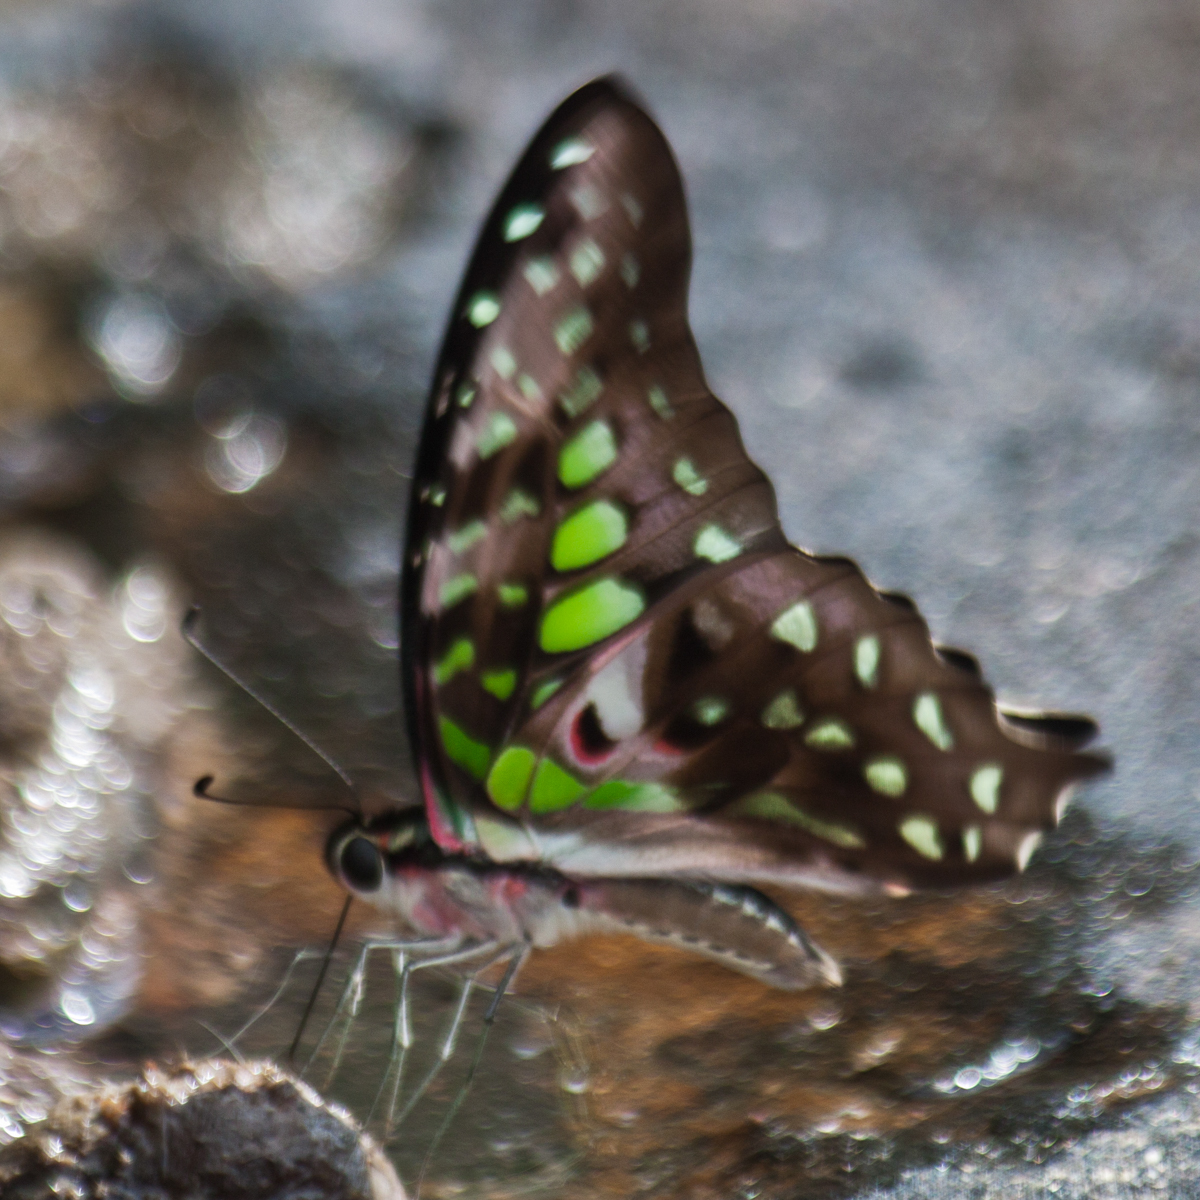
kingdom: Animalia
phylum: Arthropoda
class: Insecta
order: Lepidoptera
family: Papilionidae
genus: Graphium
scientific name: Graphium agamemnon
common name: Tailed jay
